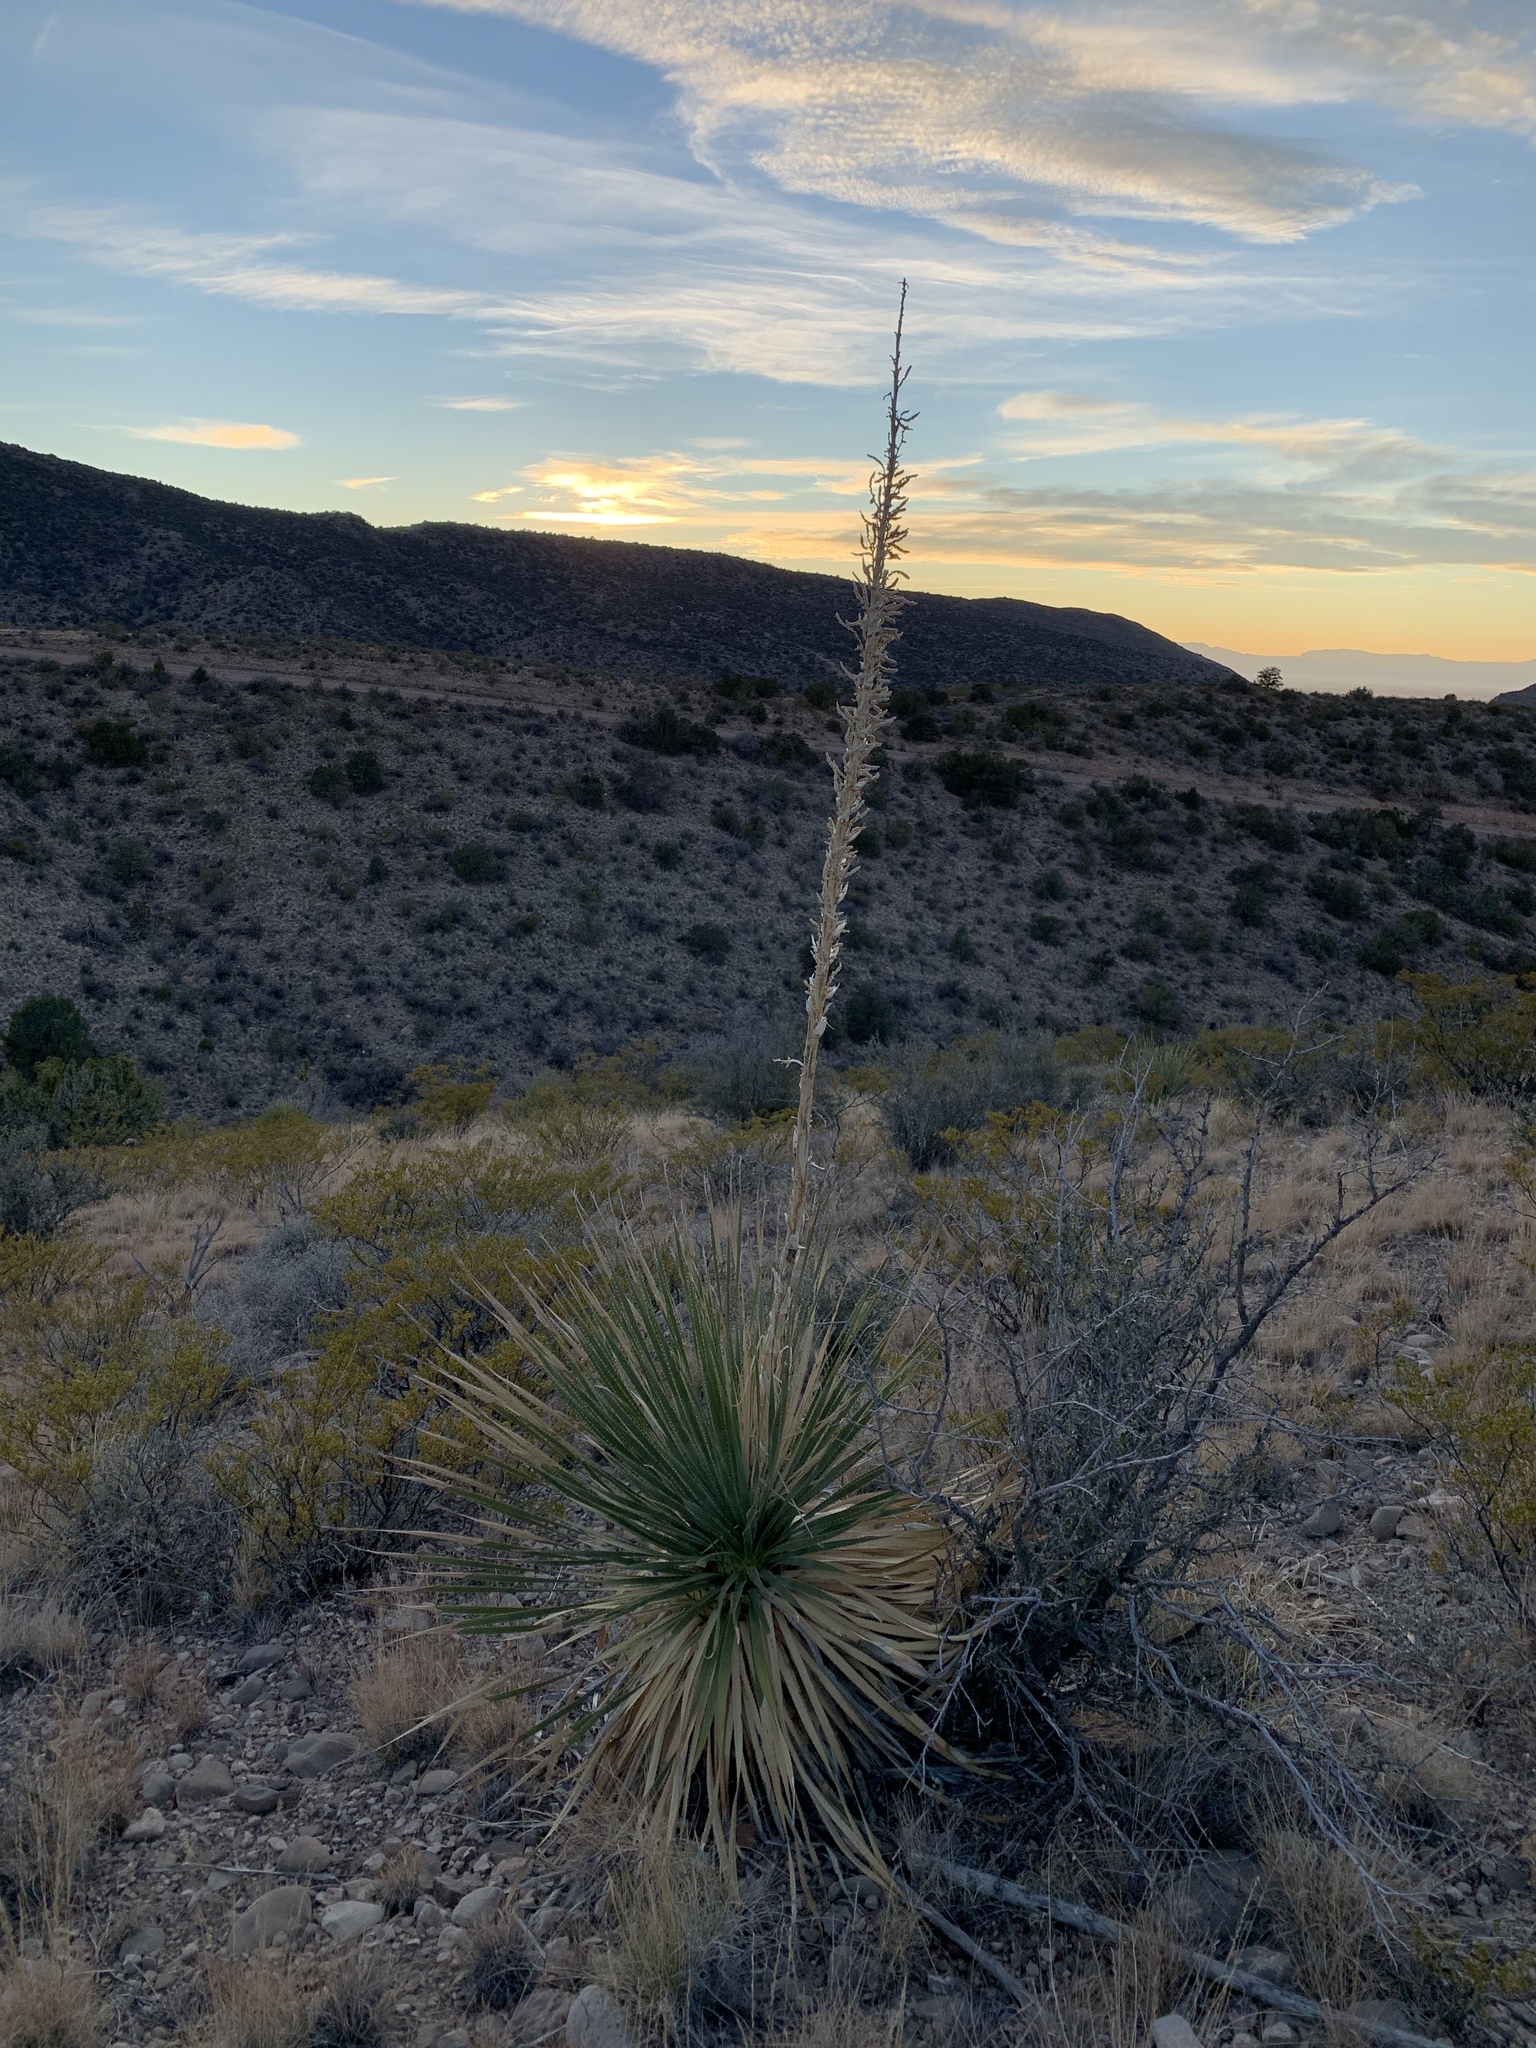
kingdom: Plantae
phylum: Tracheophyta
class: Liliopsida
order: Asparagales
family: Asparagaceae
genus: Dasylirion
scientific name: Dasylirion wheeleri
